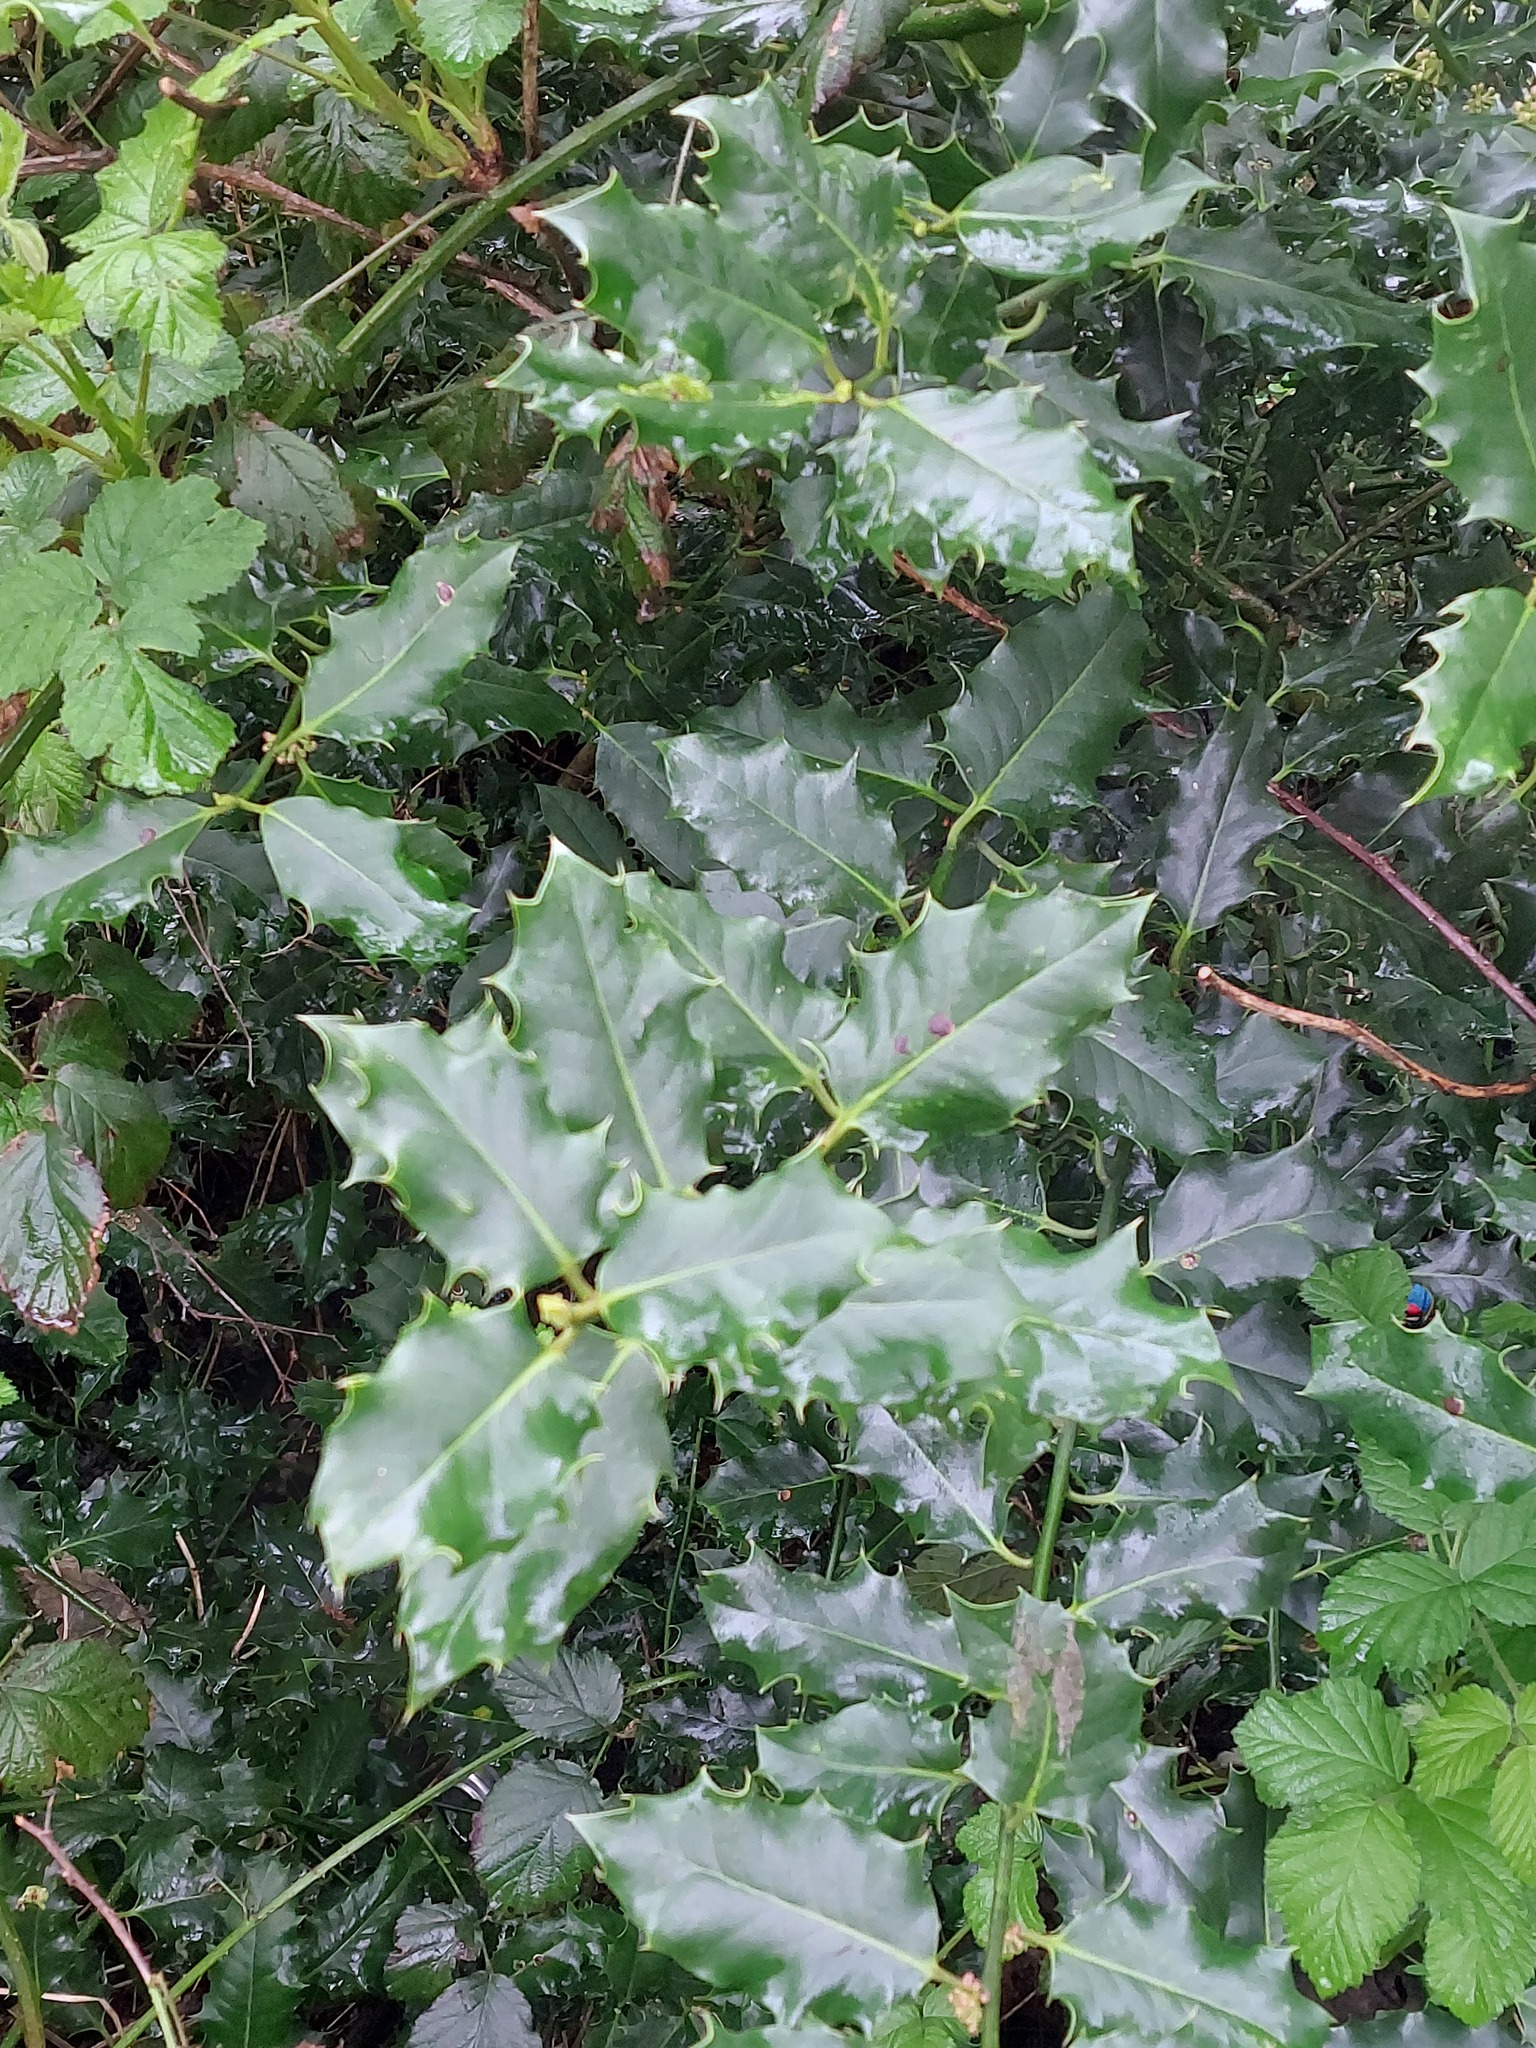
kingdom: Plantae
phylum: Tracheophyta
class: Magnoliopsida
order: Aquifoliales
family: Aquifoliaceae
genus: Ilex
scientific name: Ilex aquifolium
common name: English holly
